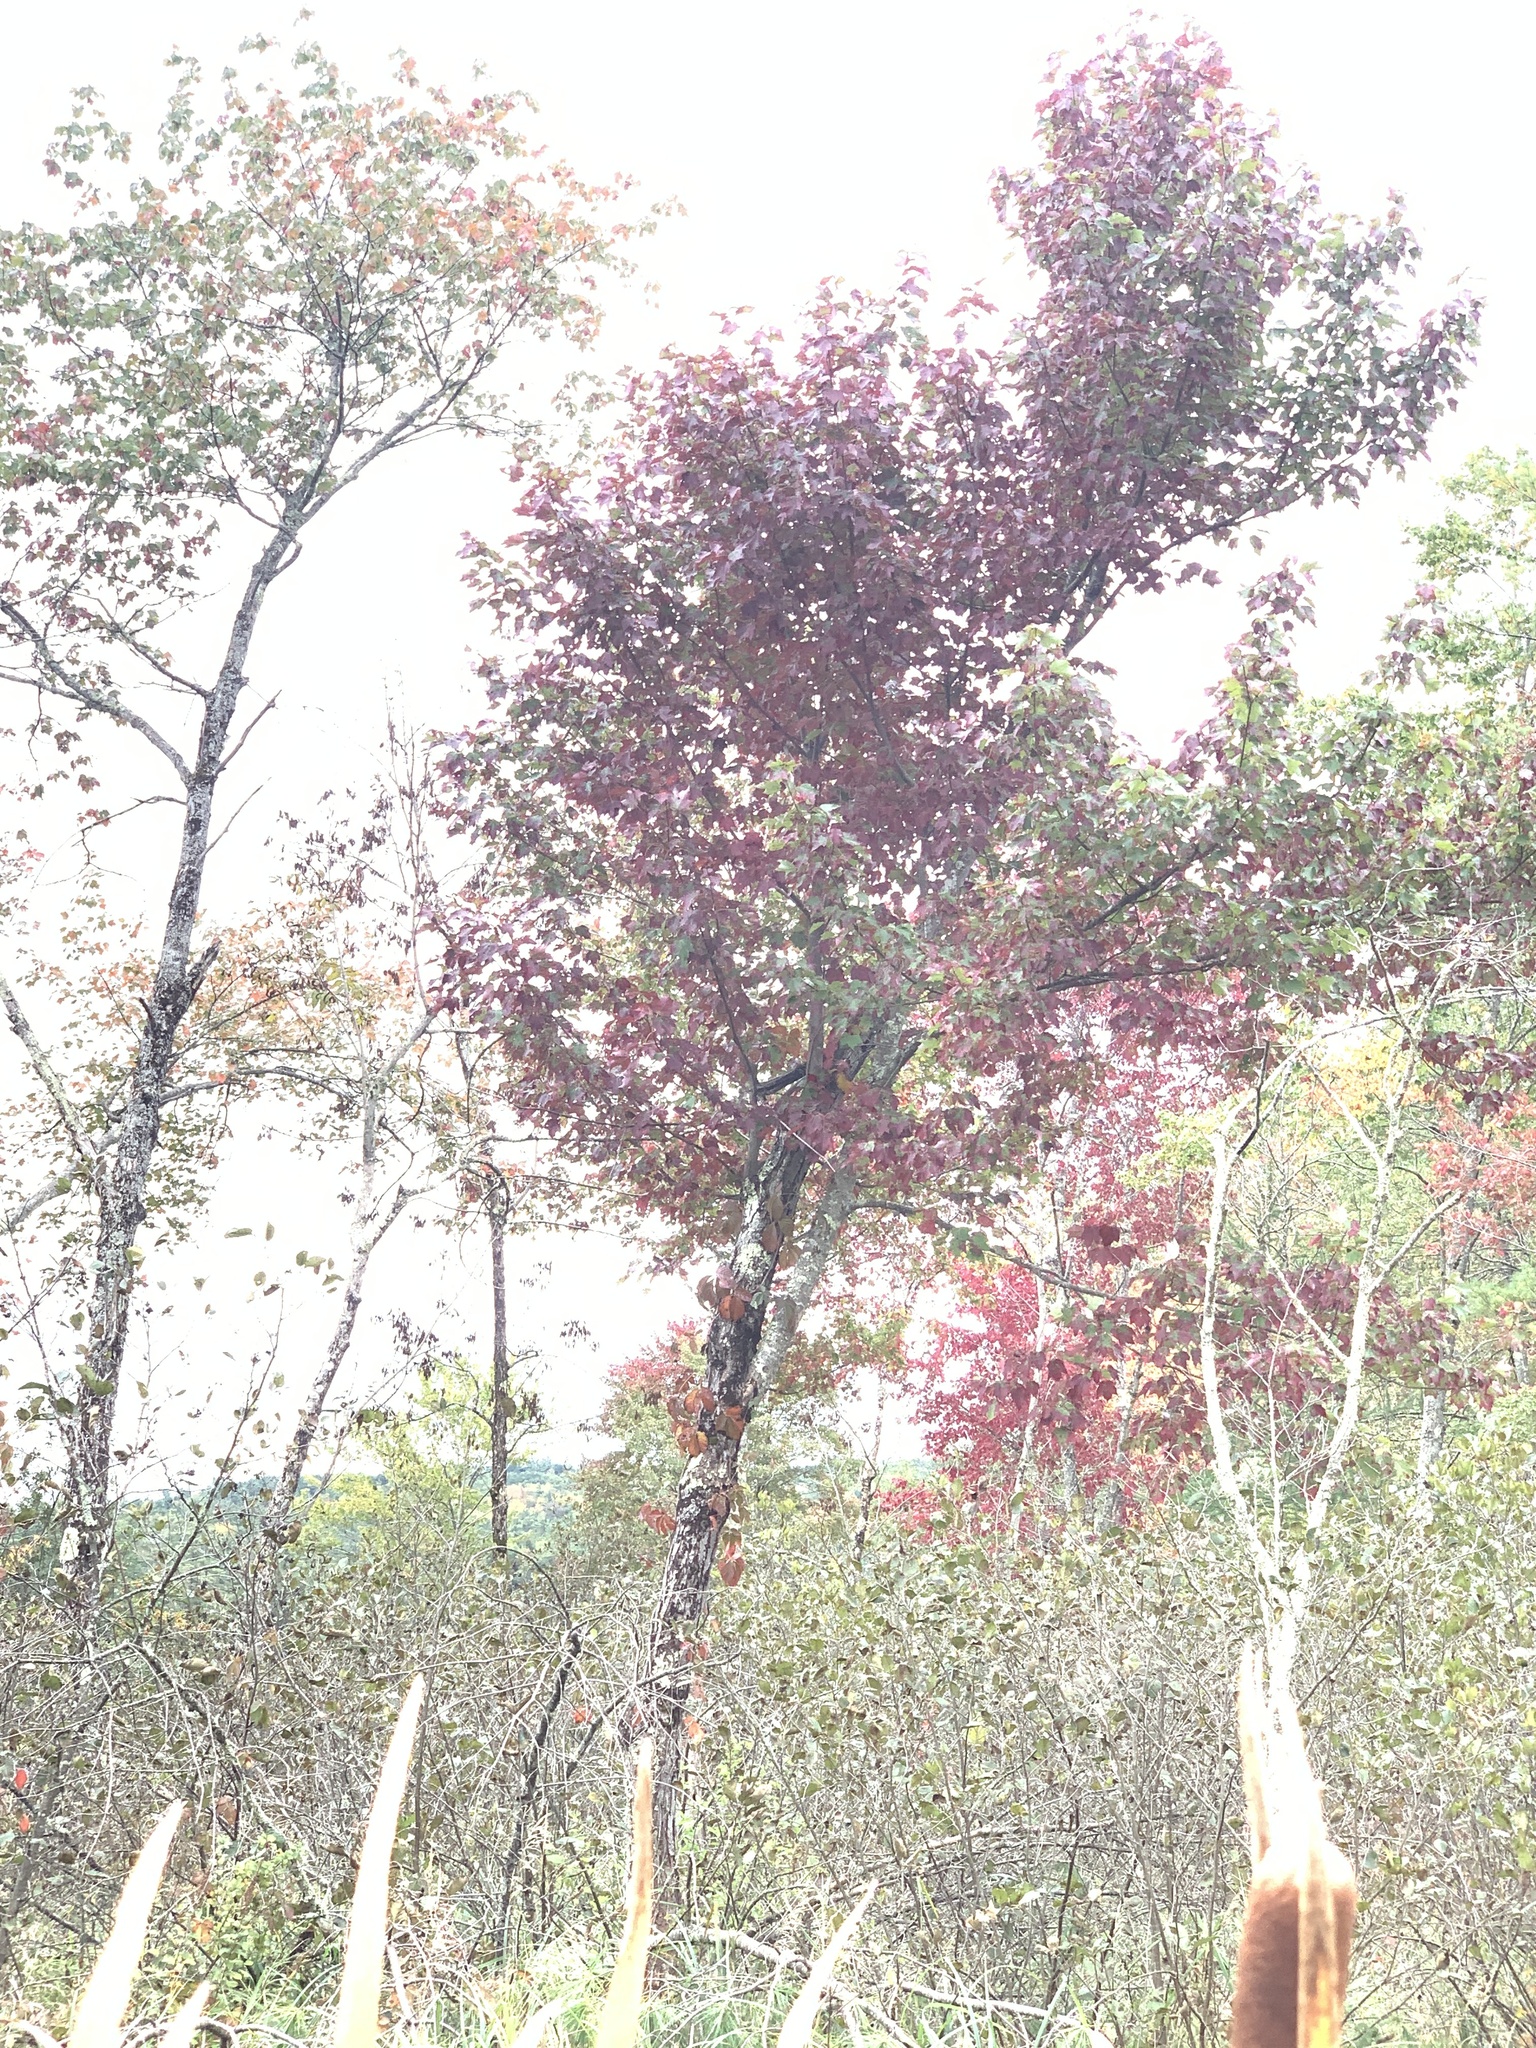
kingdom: Plantae
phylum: Tracheophyta
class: Magnoliopsida
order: Sapindales
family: Sapindaceae
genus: Acer
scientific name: Acer rubrum
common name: Red maple
